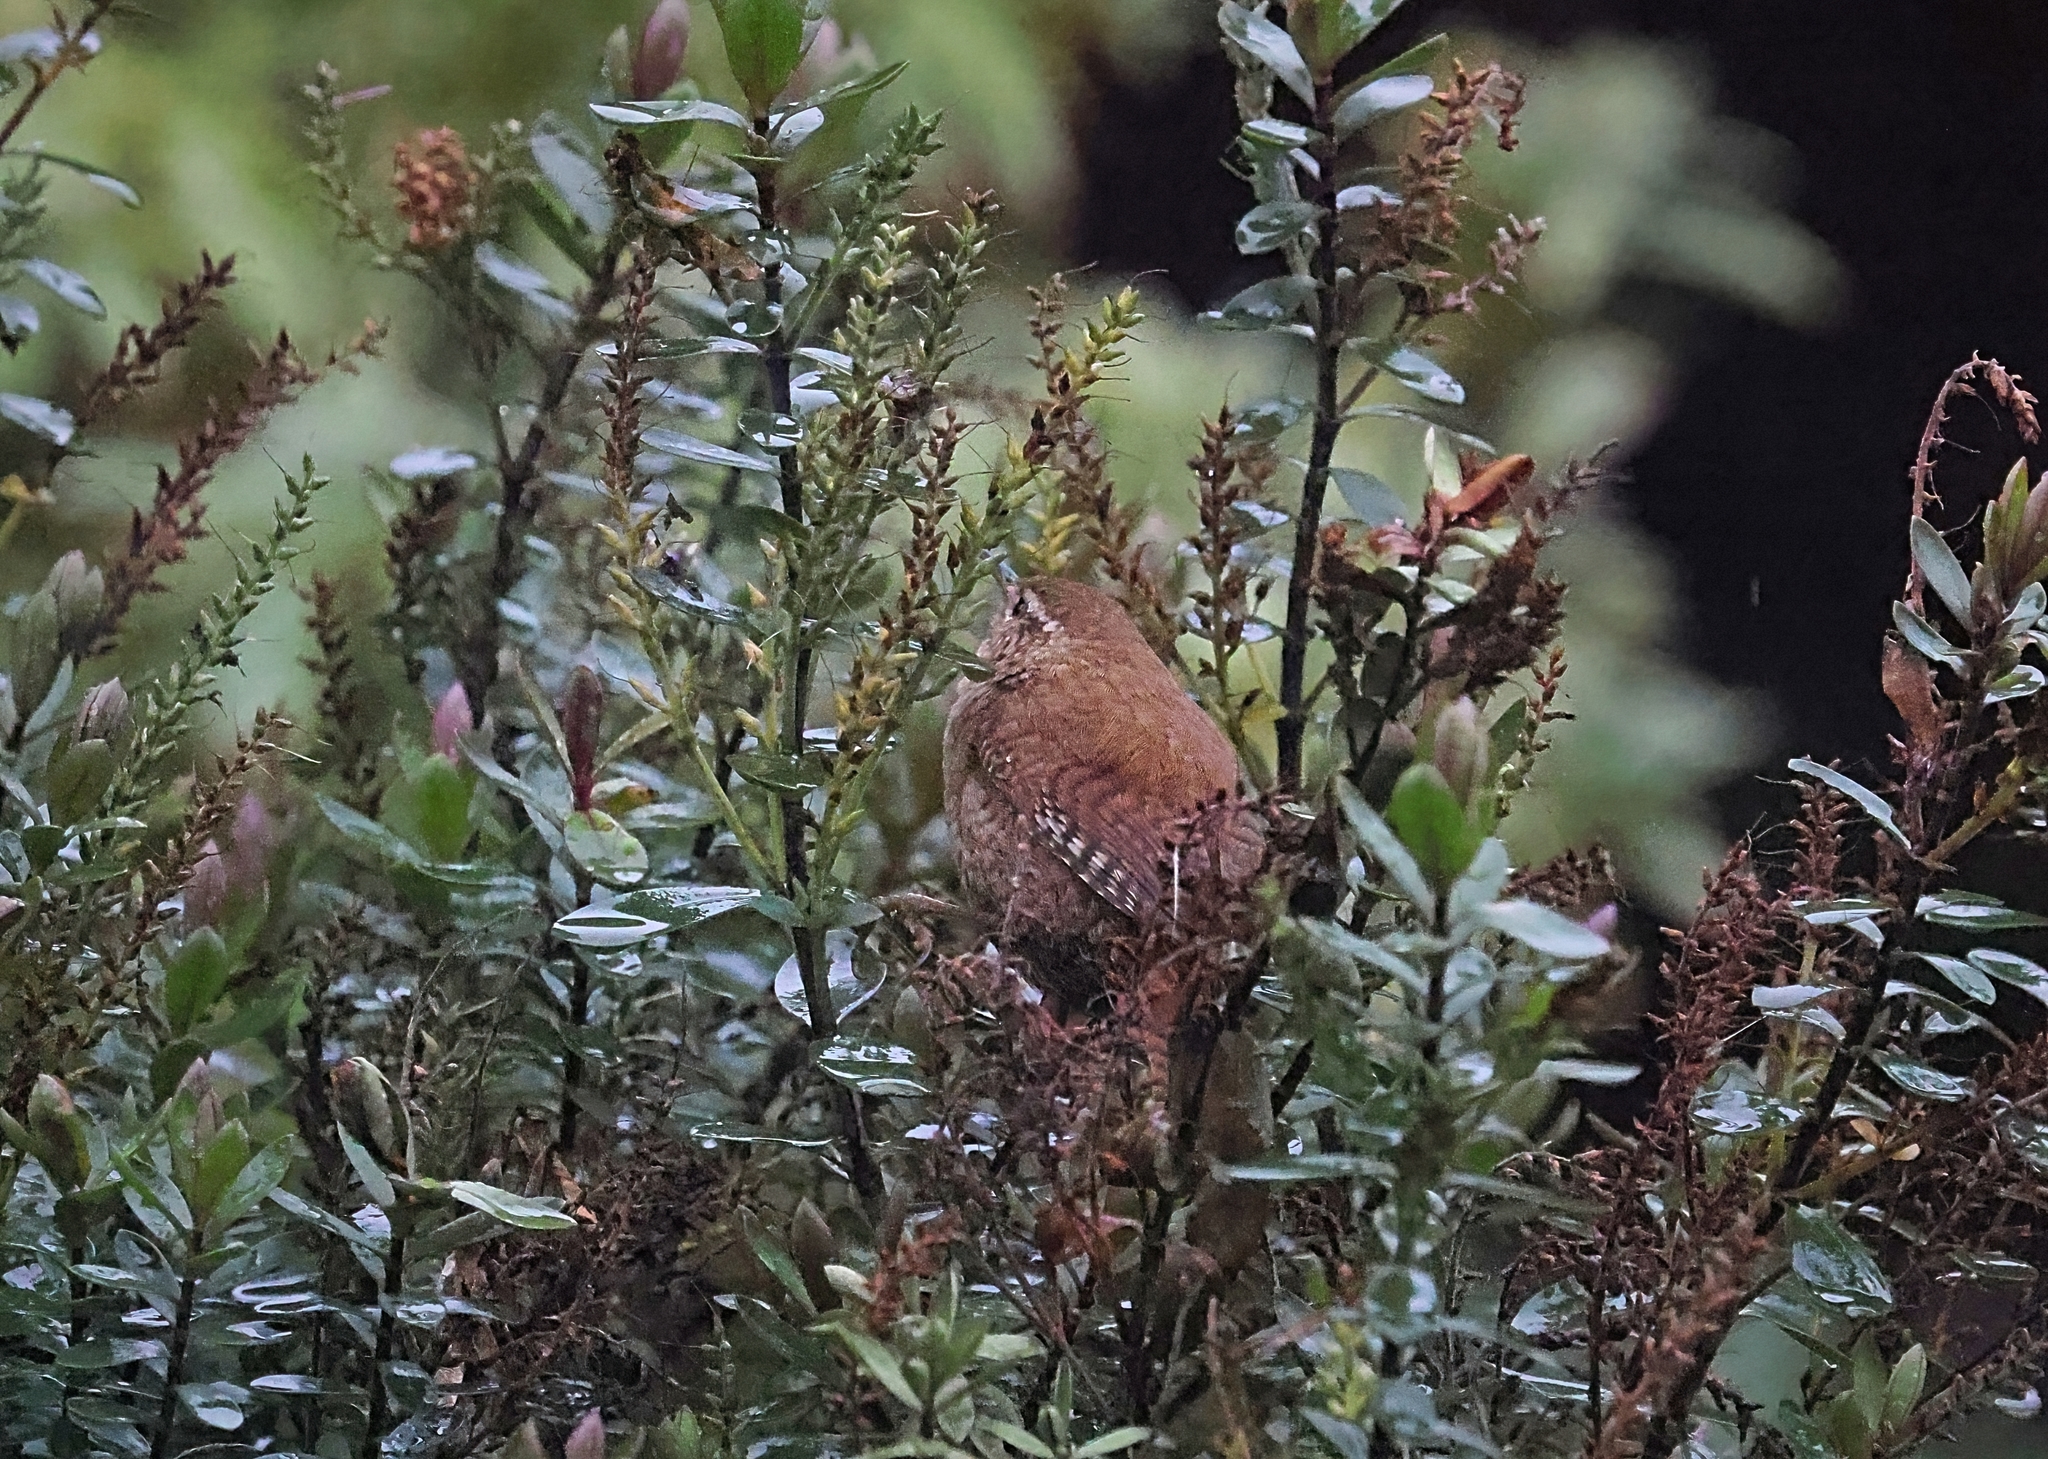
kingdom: Animalia
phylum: Chordata
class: Aves
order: Passeriformes
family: Troglodytidae
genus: Troglodytes
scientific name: Troglodytes troglodytes
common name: Eurasian wren
